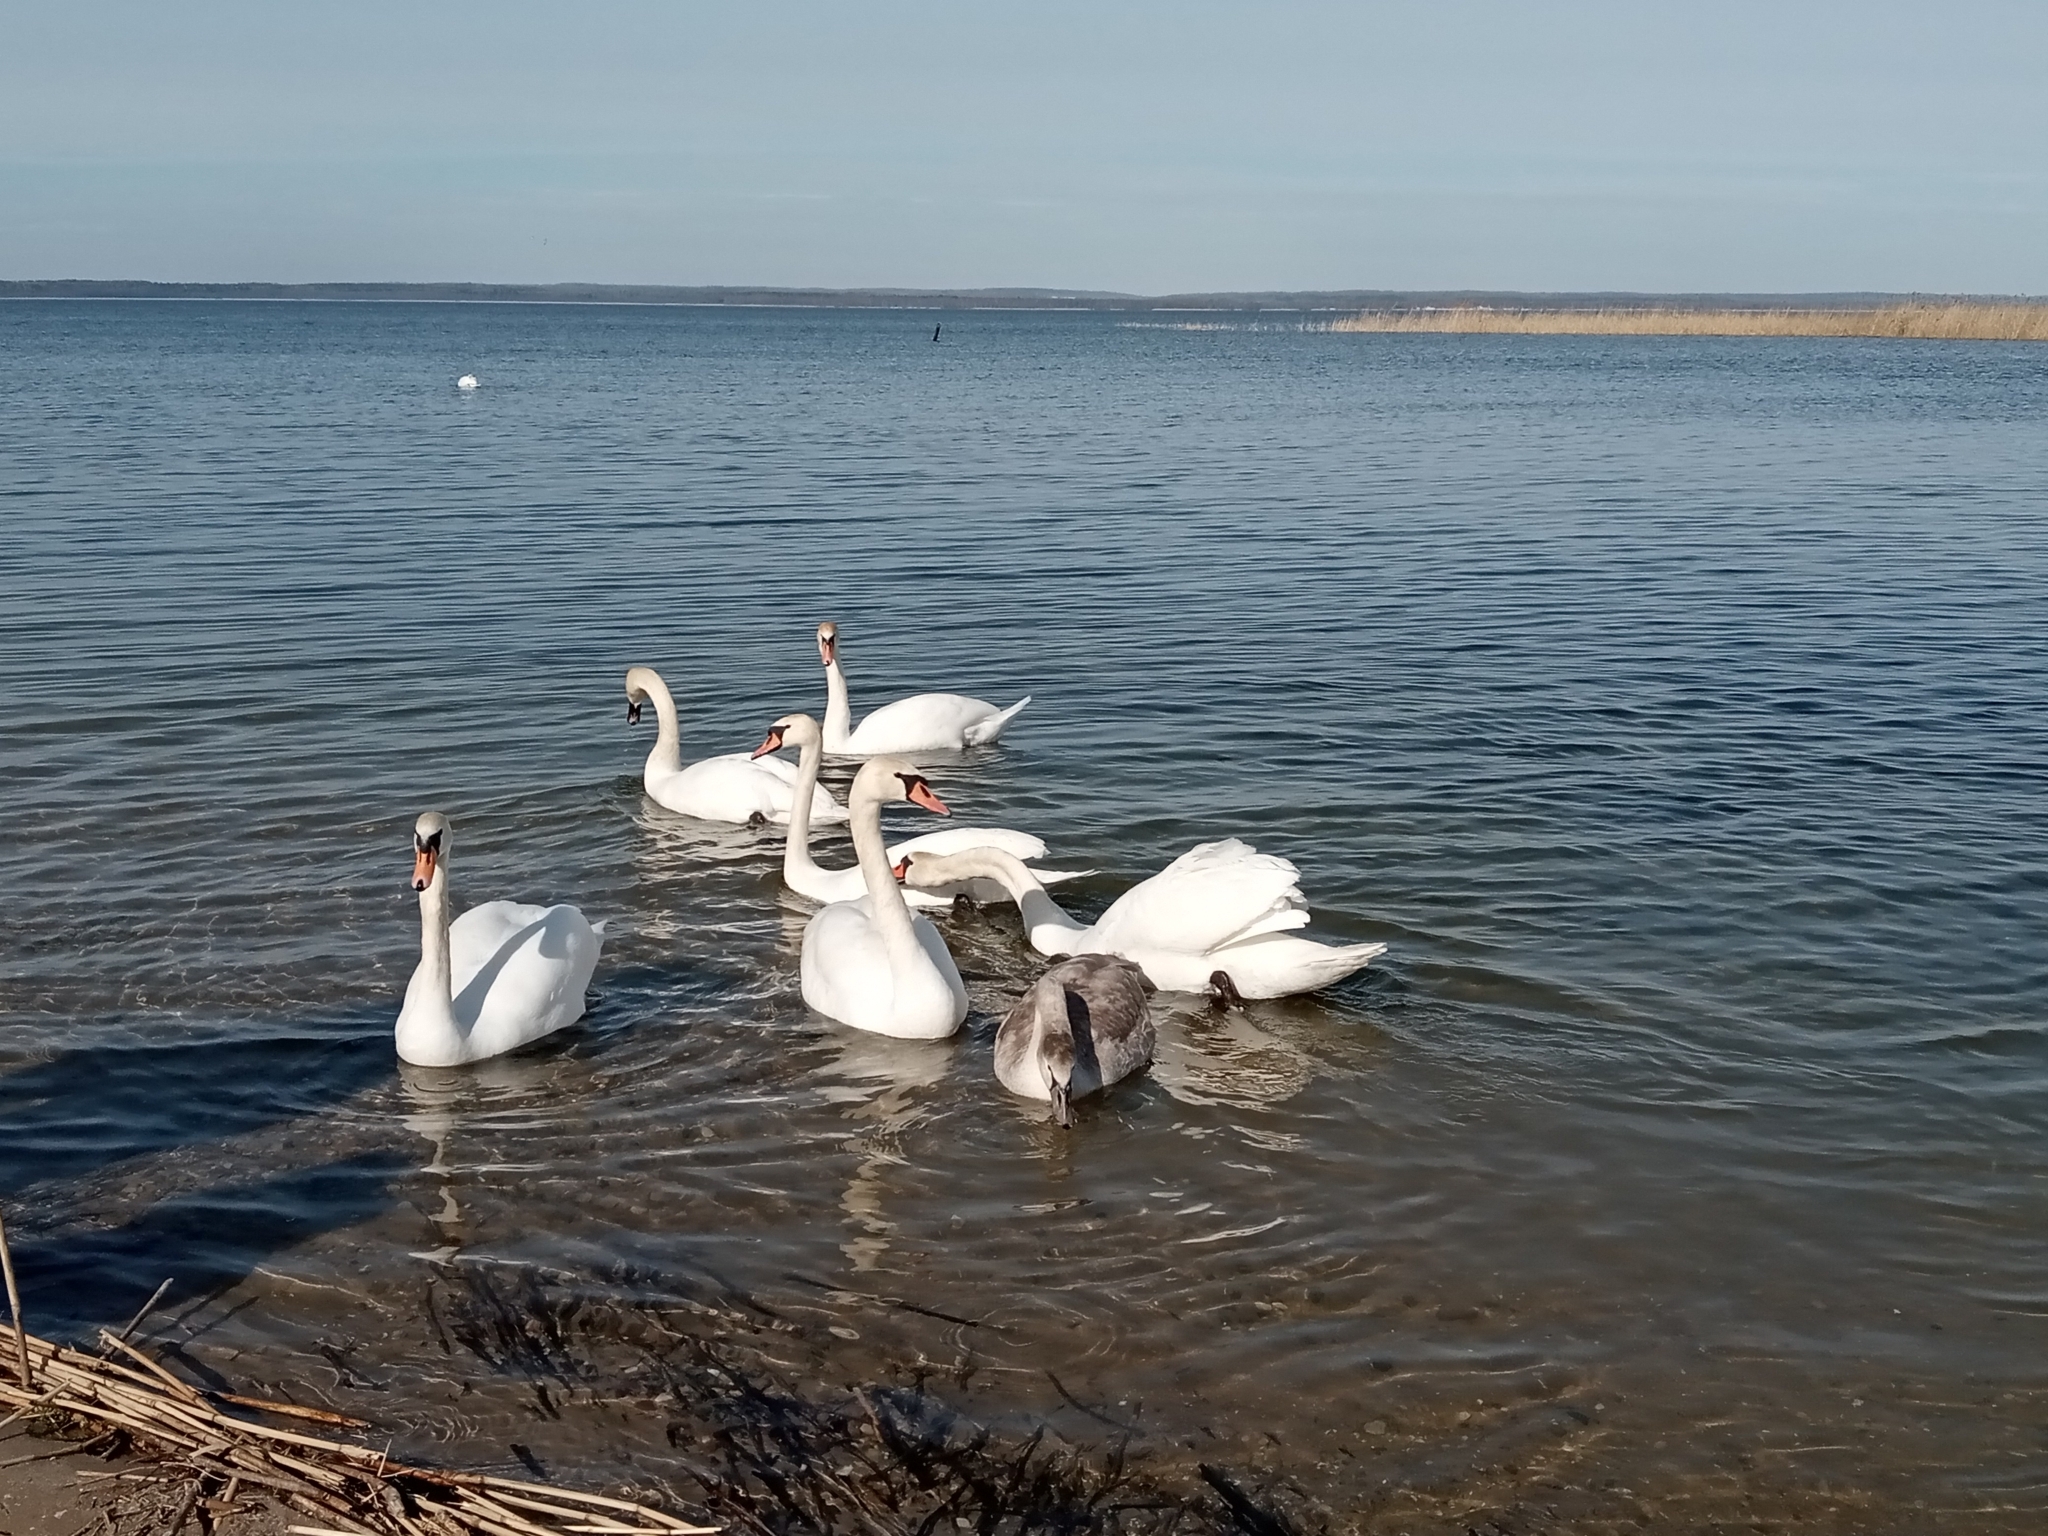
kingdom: Animalia
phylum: Chordata
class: Aves
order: Anseriformes
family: Anatidae
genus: Cygnus
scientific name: Cygnus olor
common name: Mute swan
